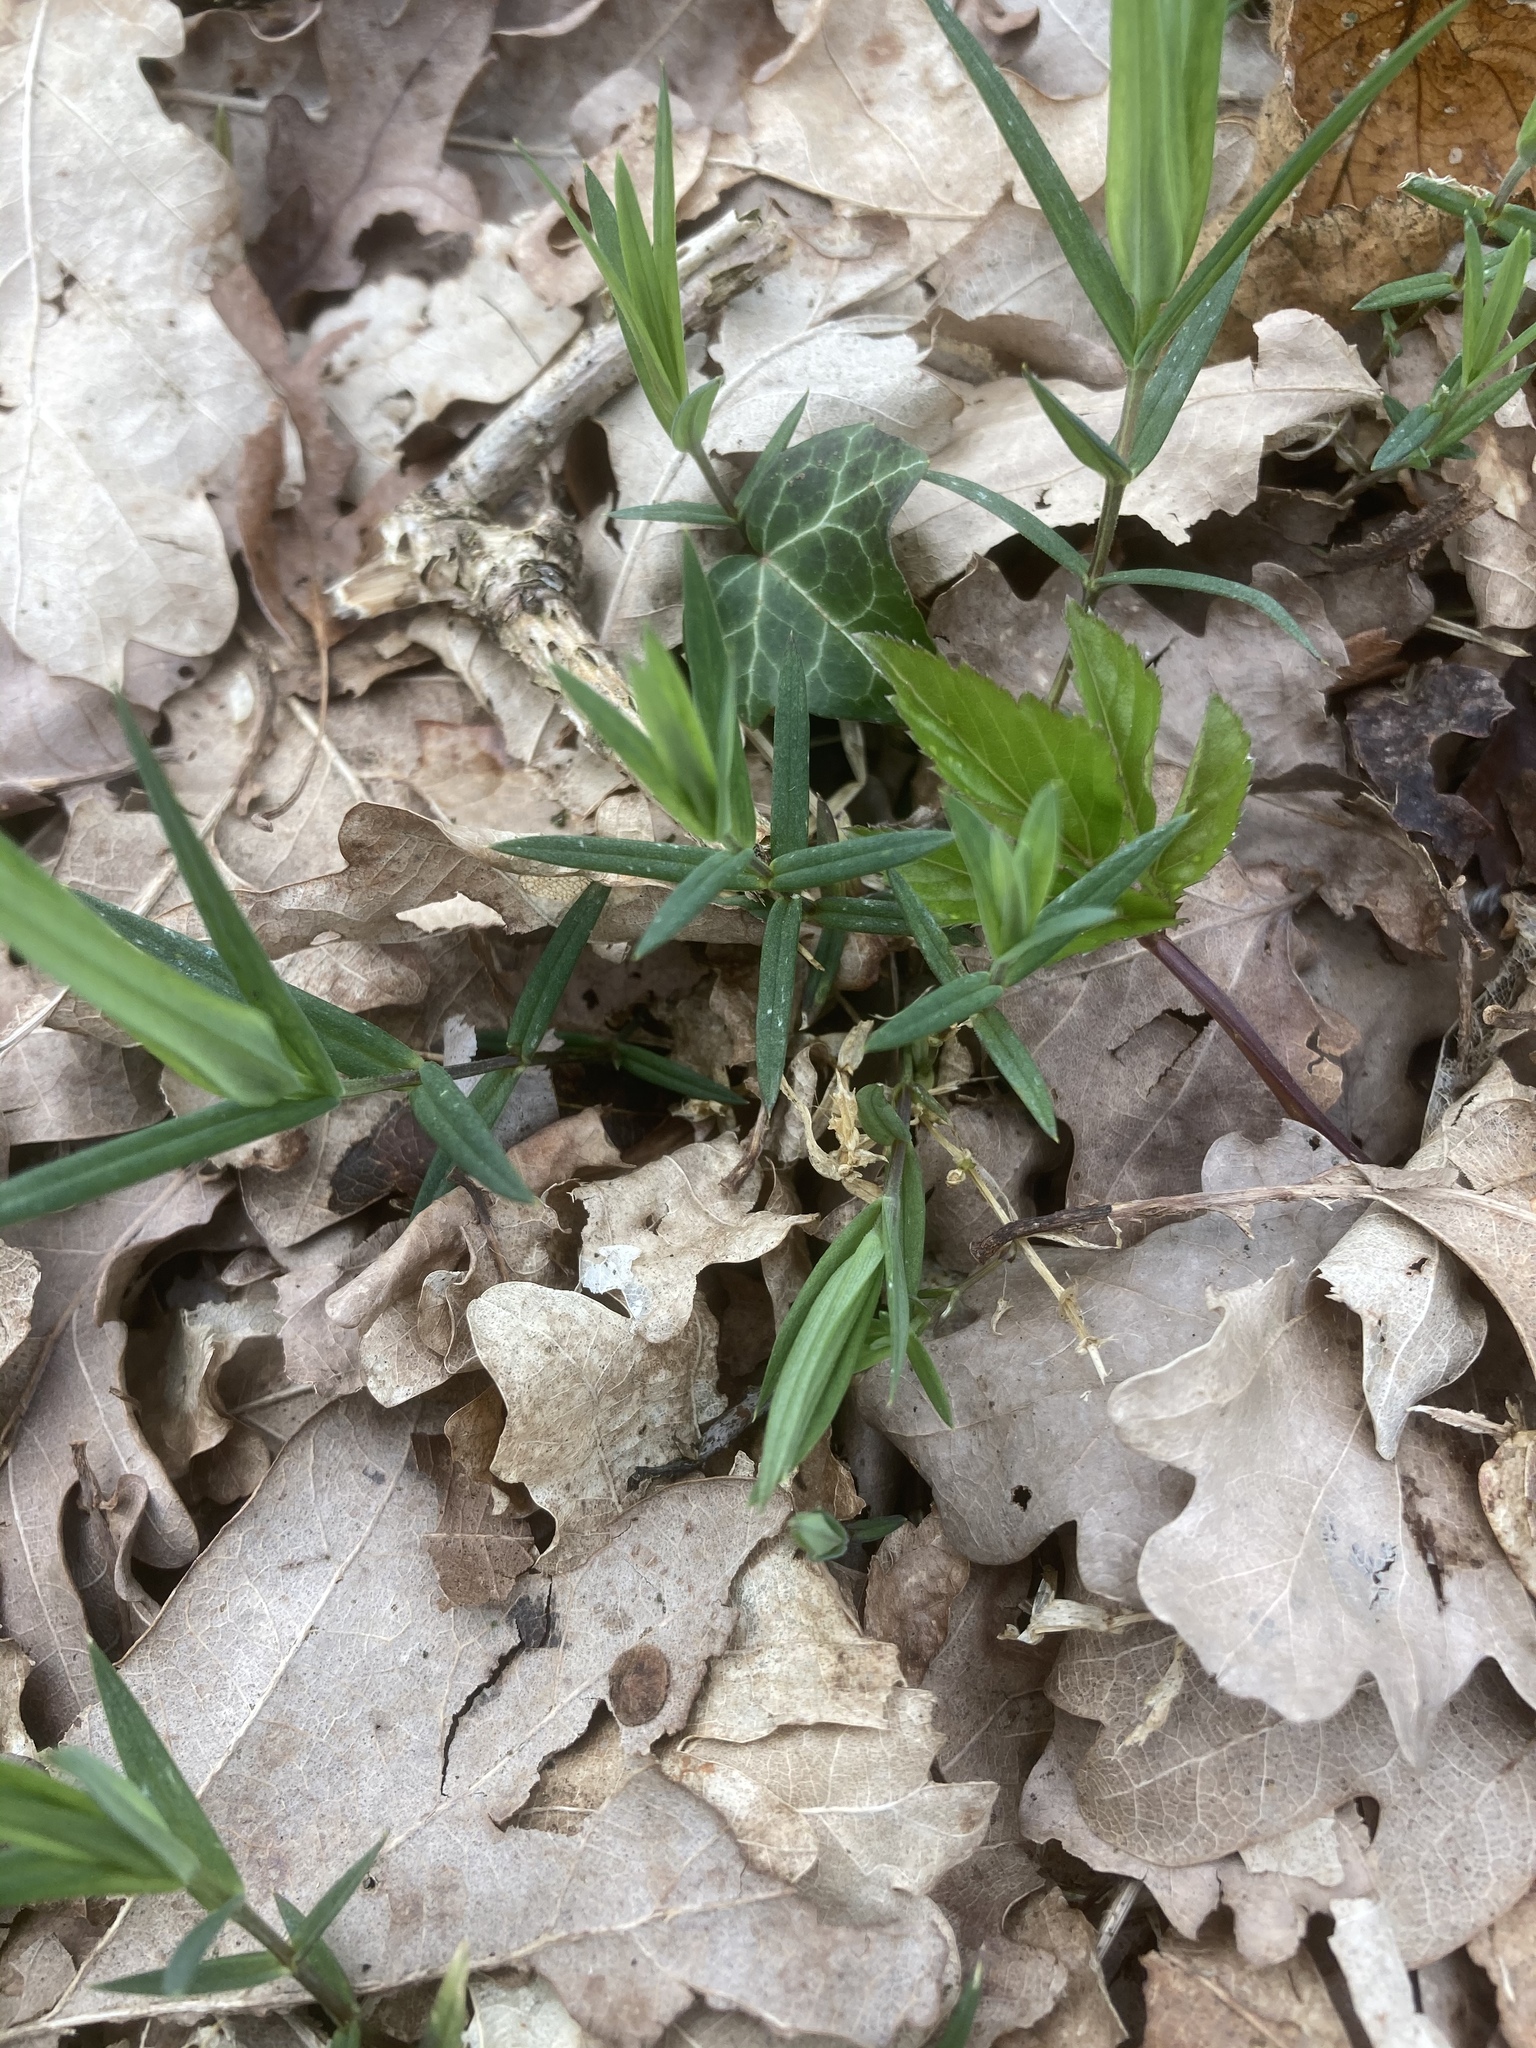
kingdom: Plantae
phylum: Tracheophyta
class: Magnoliopsida
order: Caryophyllales
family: Caryophyllaceae
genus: Rabelera
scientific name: Rabelera holostea
